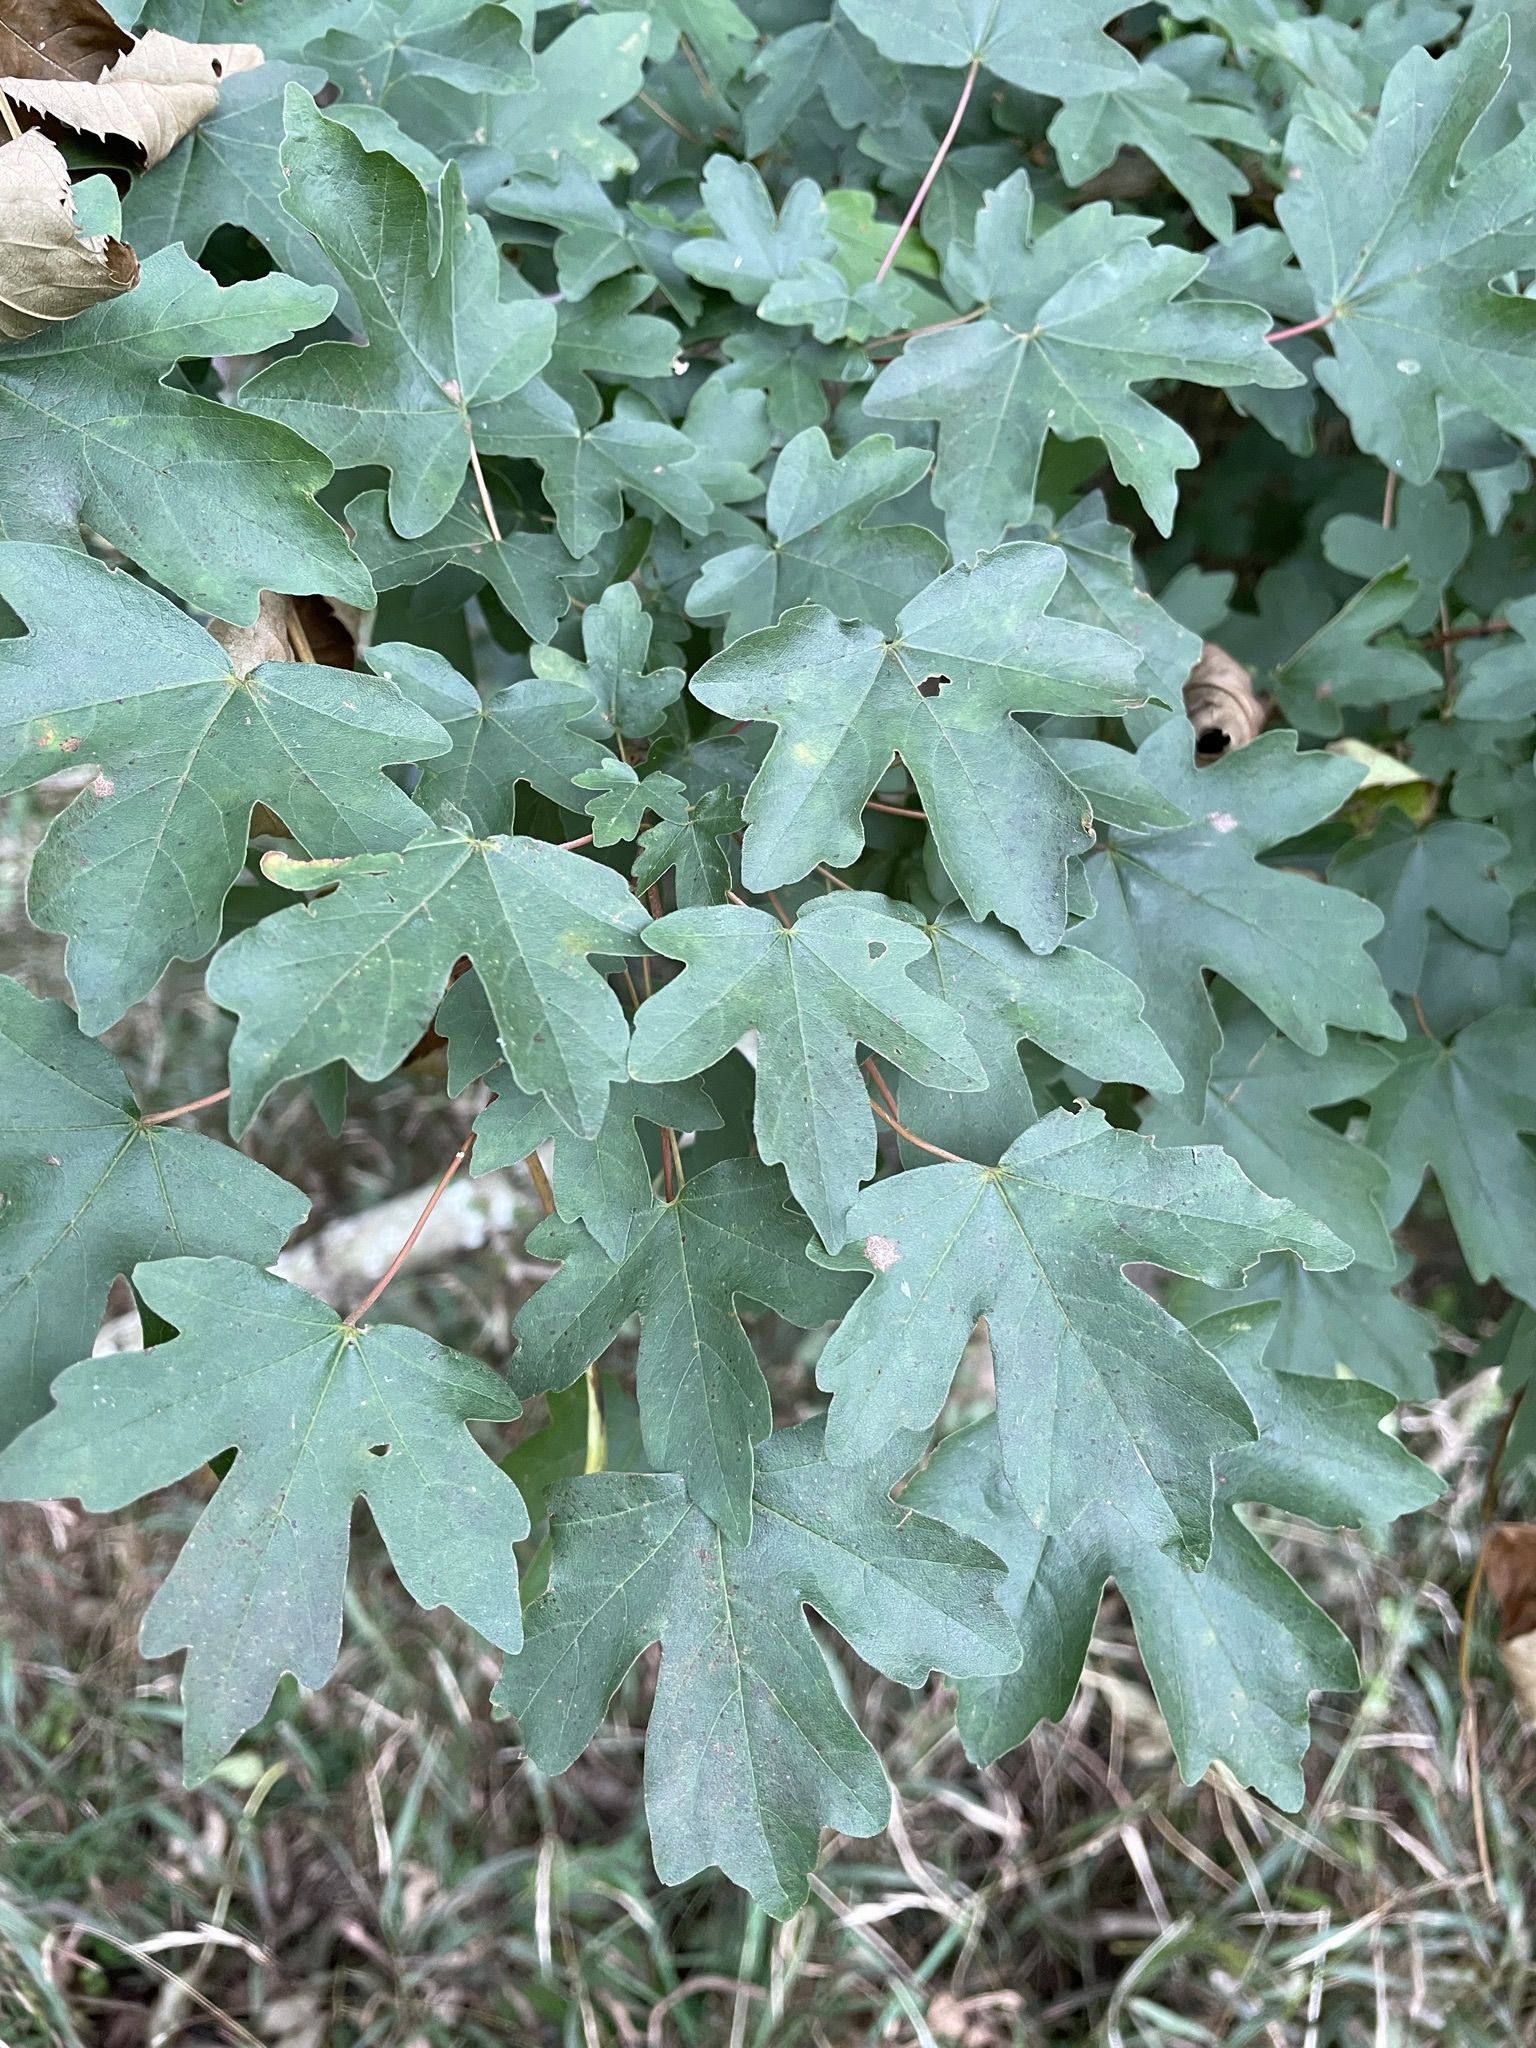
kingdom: Plantae
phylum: Tracheophyta
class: Magnoliopsida
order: Sapindales
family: Sapindaceae
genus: Acer
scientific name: Acer campestre
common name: Field maple
